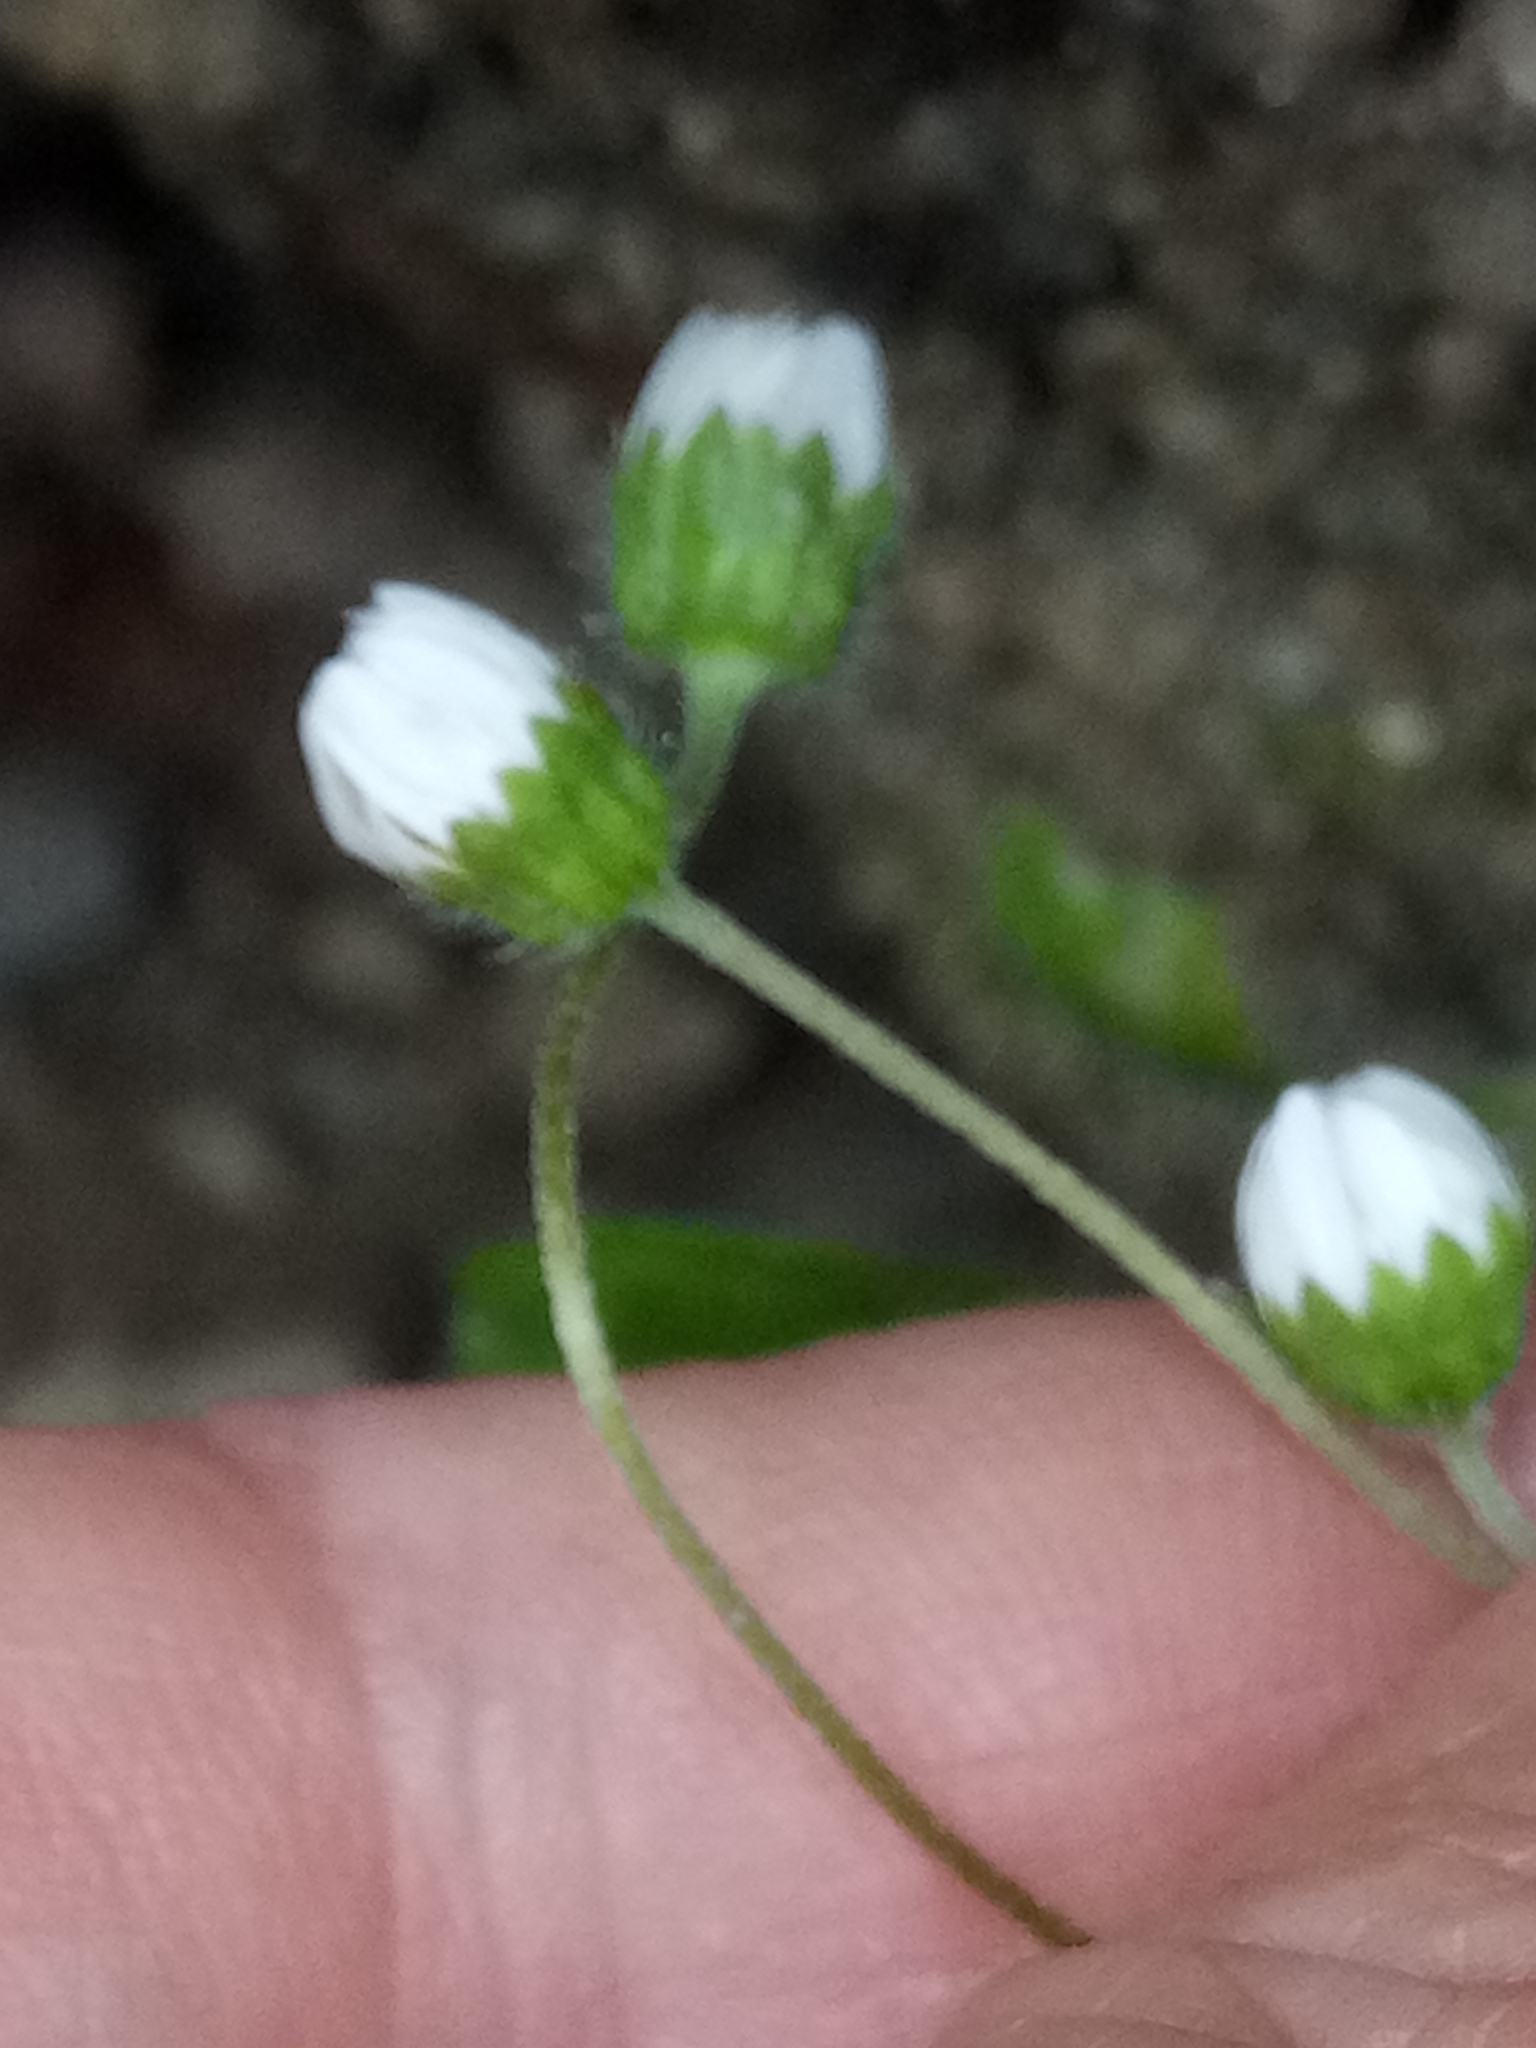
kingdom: Plantae
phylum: Tracheophyta
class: Magnoliopsida
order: Asterales
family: Asteraceae
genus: Bellis
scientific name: Bellis annua
